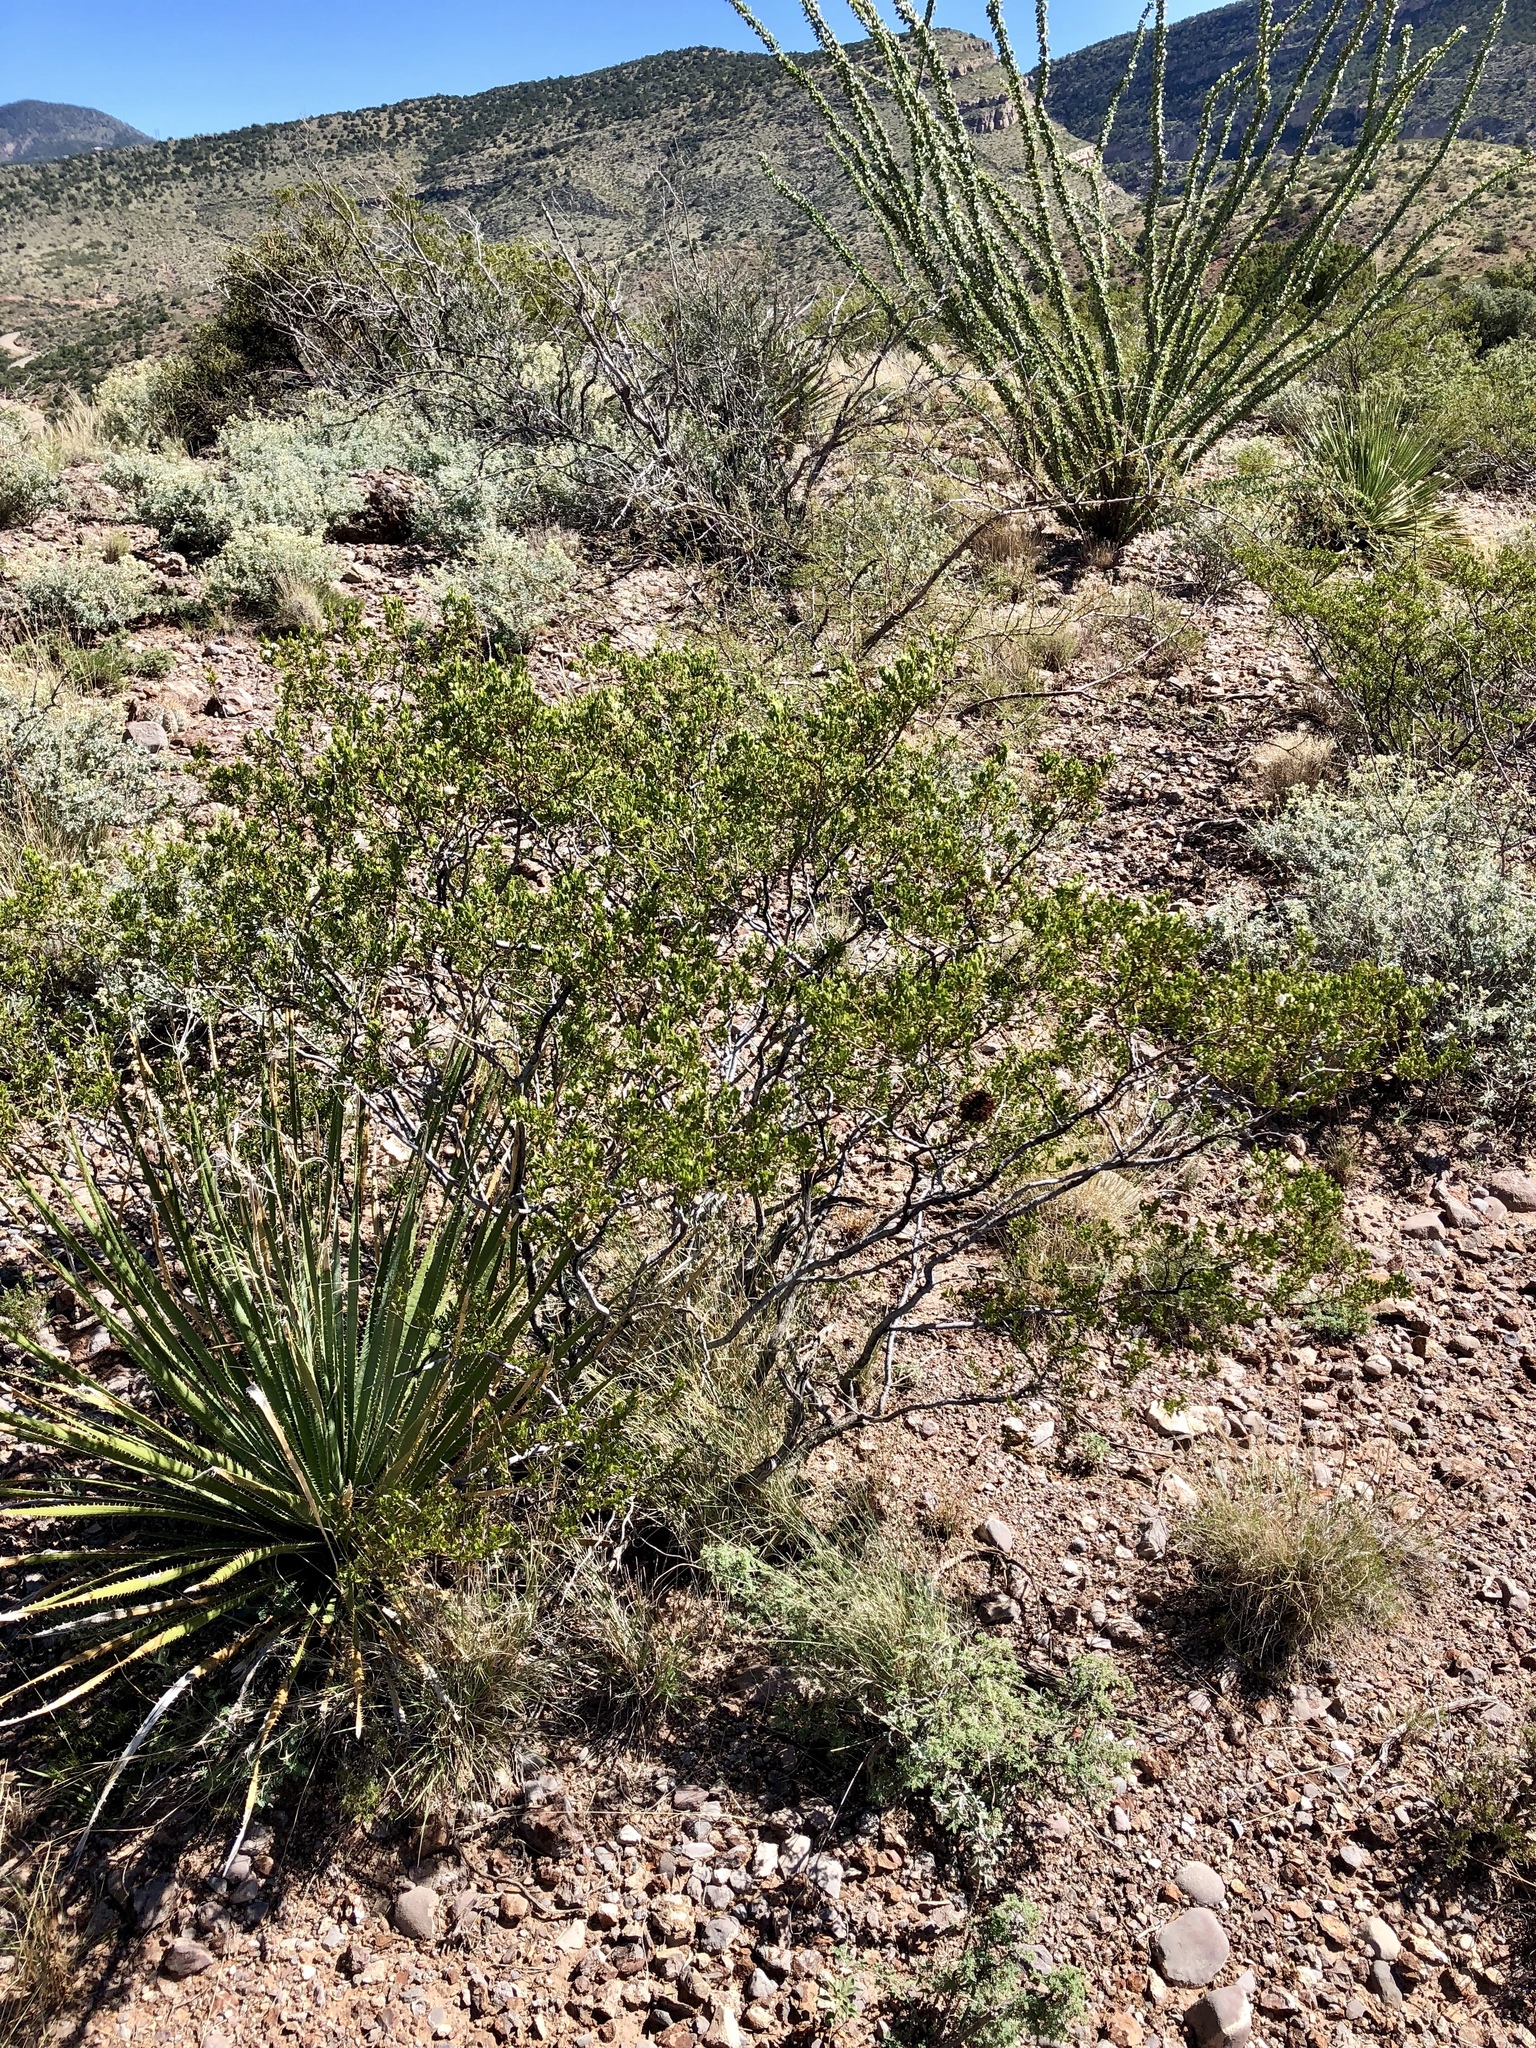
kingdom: Plantae
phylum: Tracheophyta
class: Magnoliopsida
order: Zygophyllales
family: Zygophyllaceae
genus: Larrea
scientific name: Larrea tridentata
